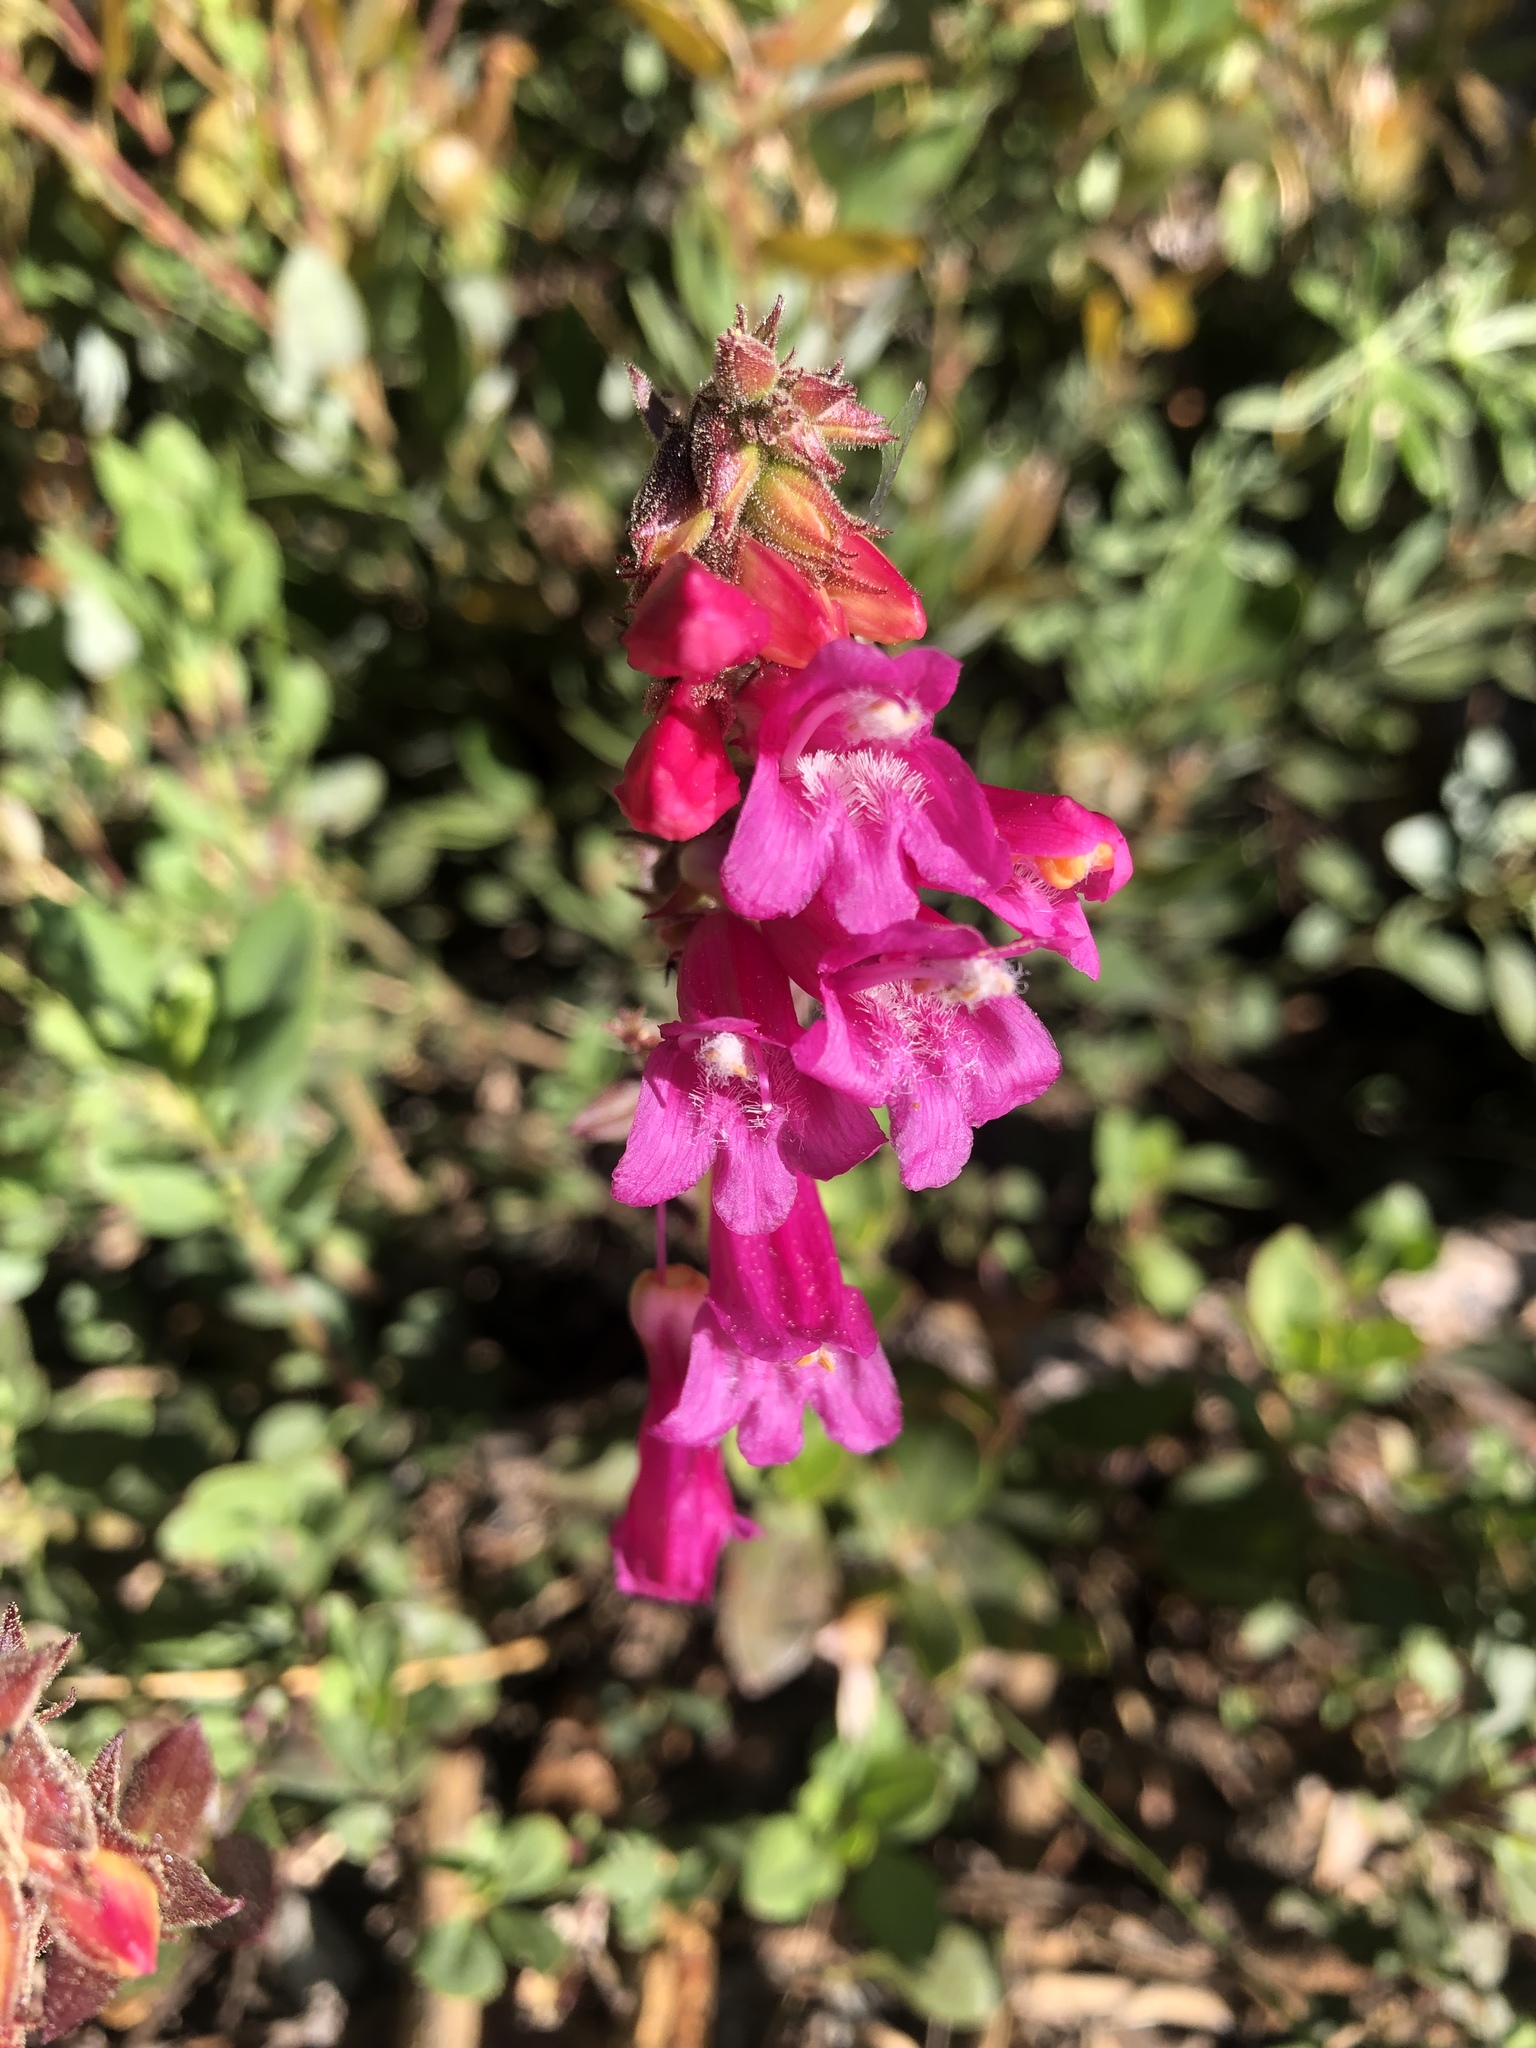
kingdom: Plantae
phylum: Tracheophyta
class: Magnoliopsida
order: Lamiales
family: Plantaginaceae
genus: Penstemon
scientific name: Penstemon newberryi
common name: Mountain-pride
